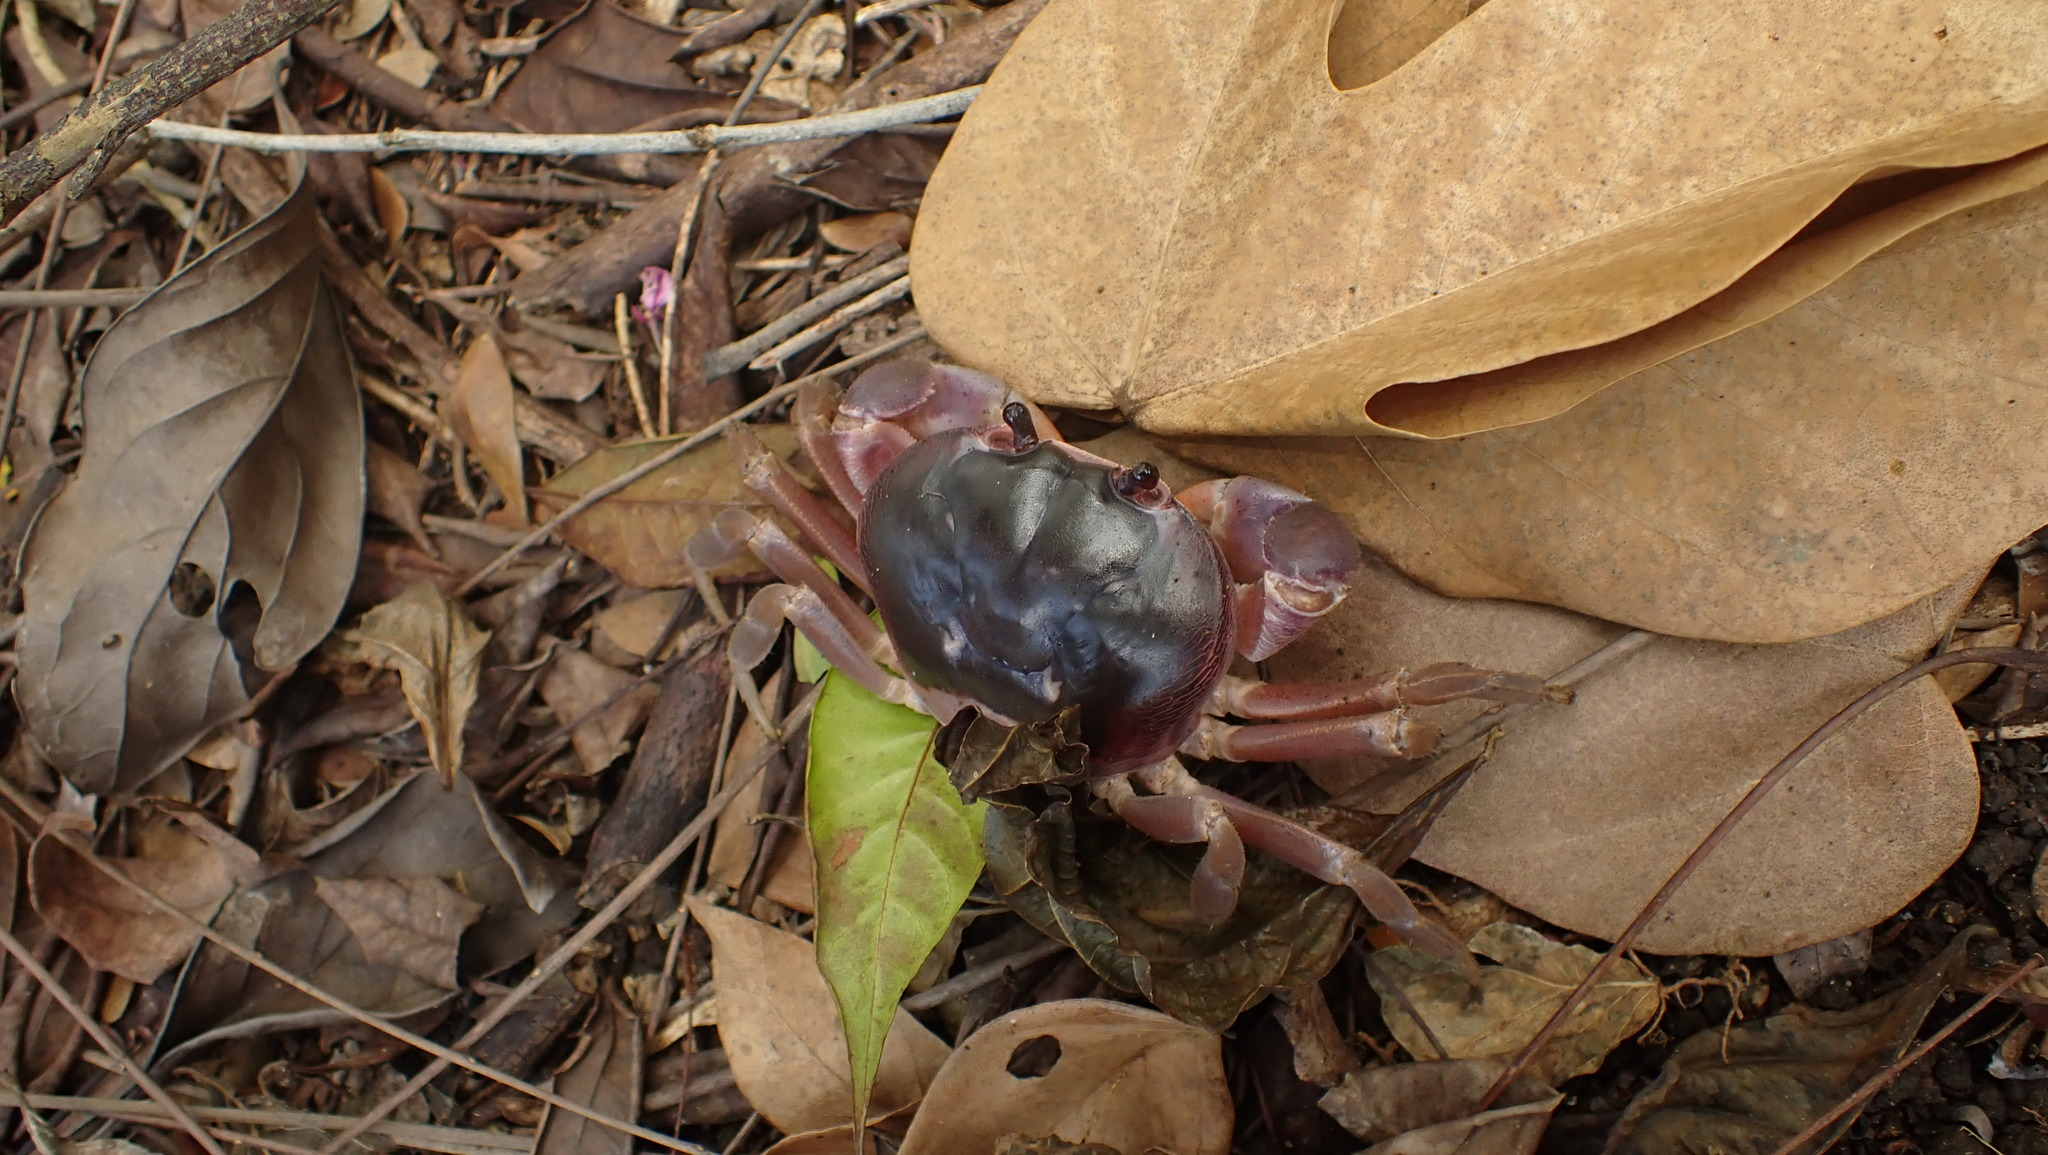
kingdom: Animalia
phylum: Arthropoda
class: Malacostraca
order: Decapoda
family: Gecarcinidae
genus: Gecarcinus
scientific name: Gecarcinus lateralis
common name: Bermuda land crab
